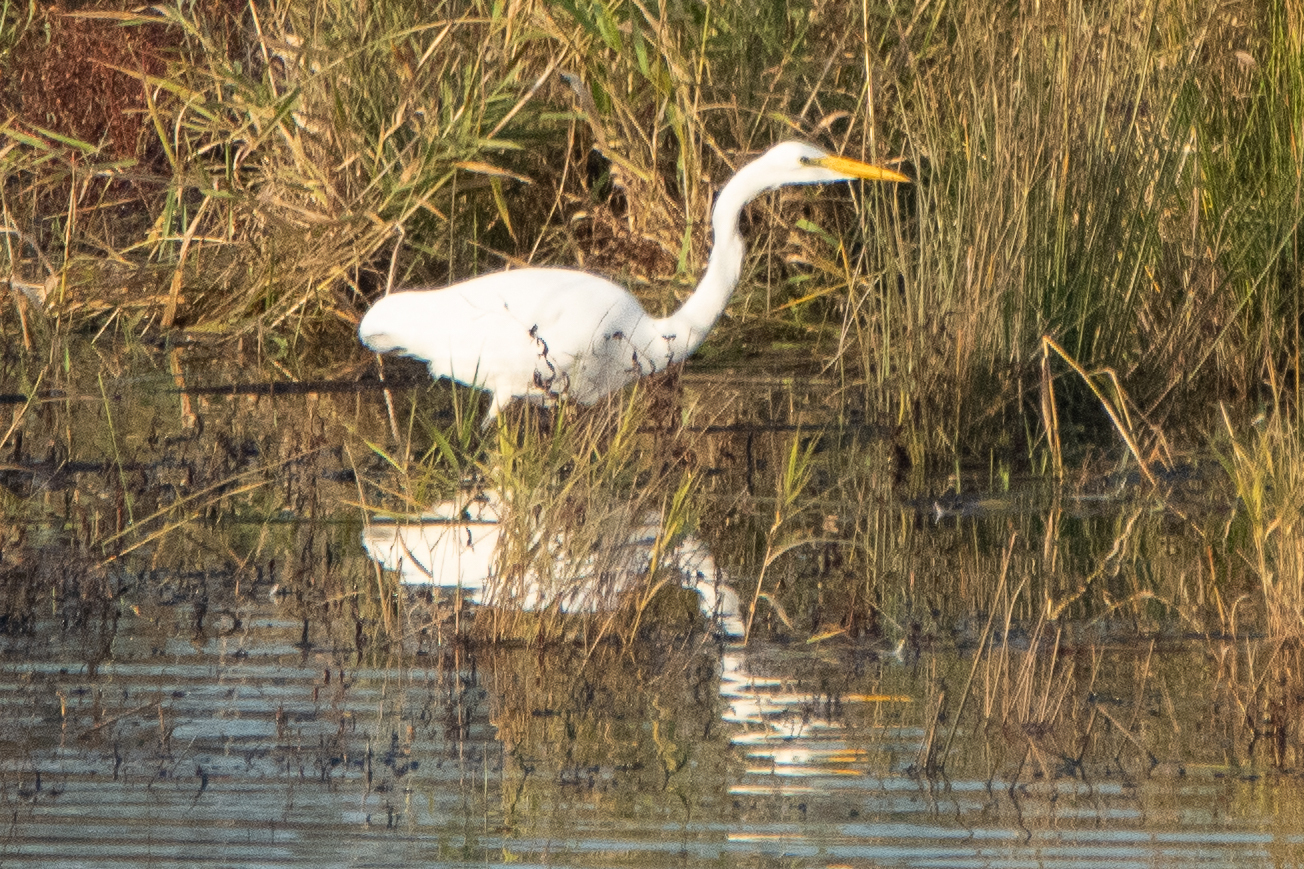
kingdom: Animalia
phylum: Chordata
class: Aves
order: Pelecaniformes
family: Ardeidae
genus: Ardea
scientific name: Ardea alba
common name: Great egret
